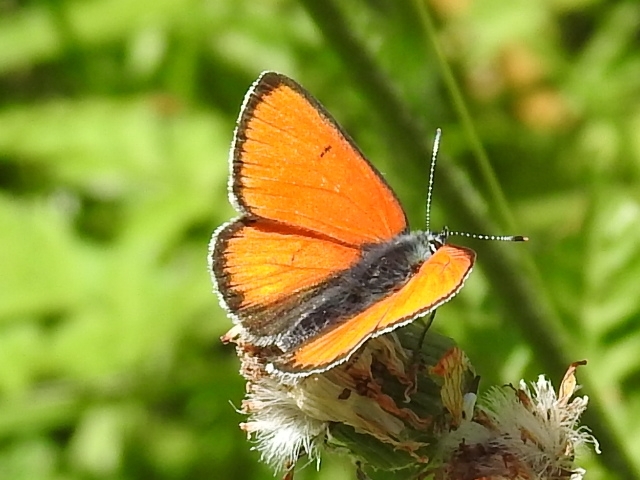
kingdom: Animalia
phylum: Arthropoda
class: Insecta
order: Lepidoptera
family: Lycaenidae
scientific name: Lycaenidae
